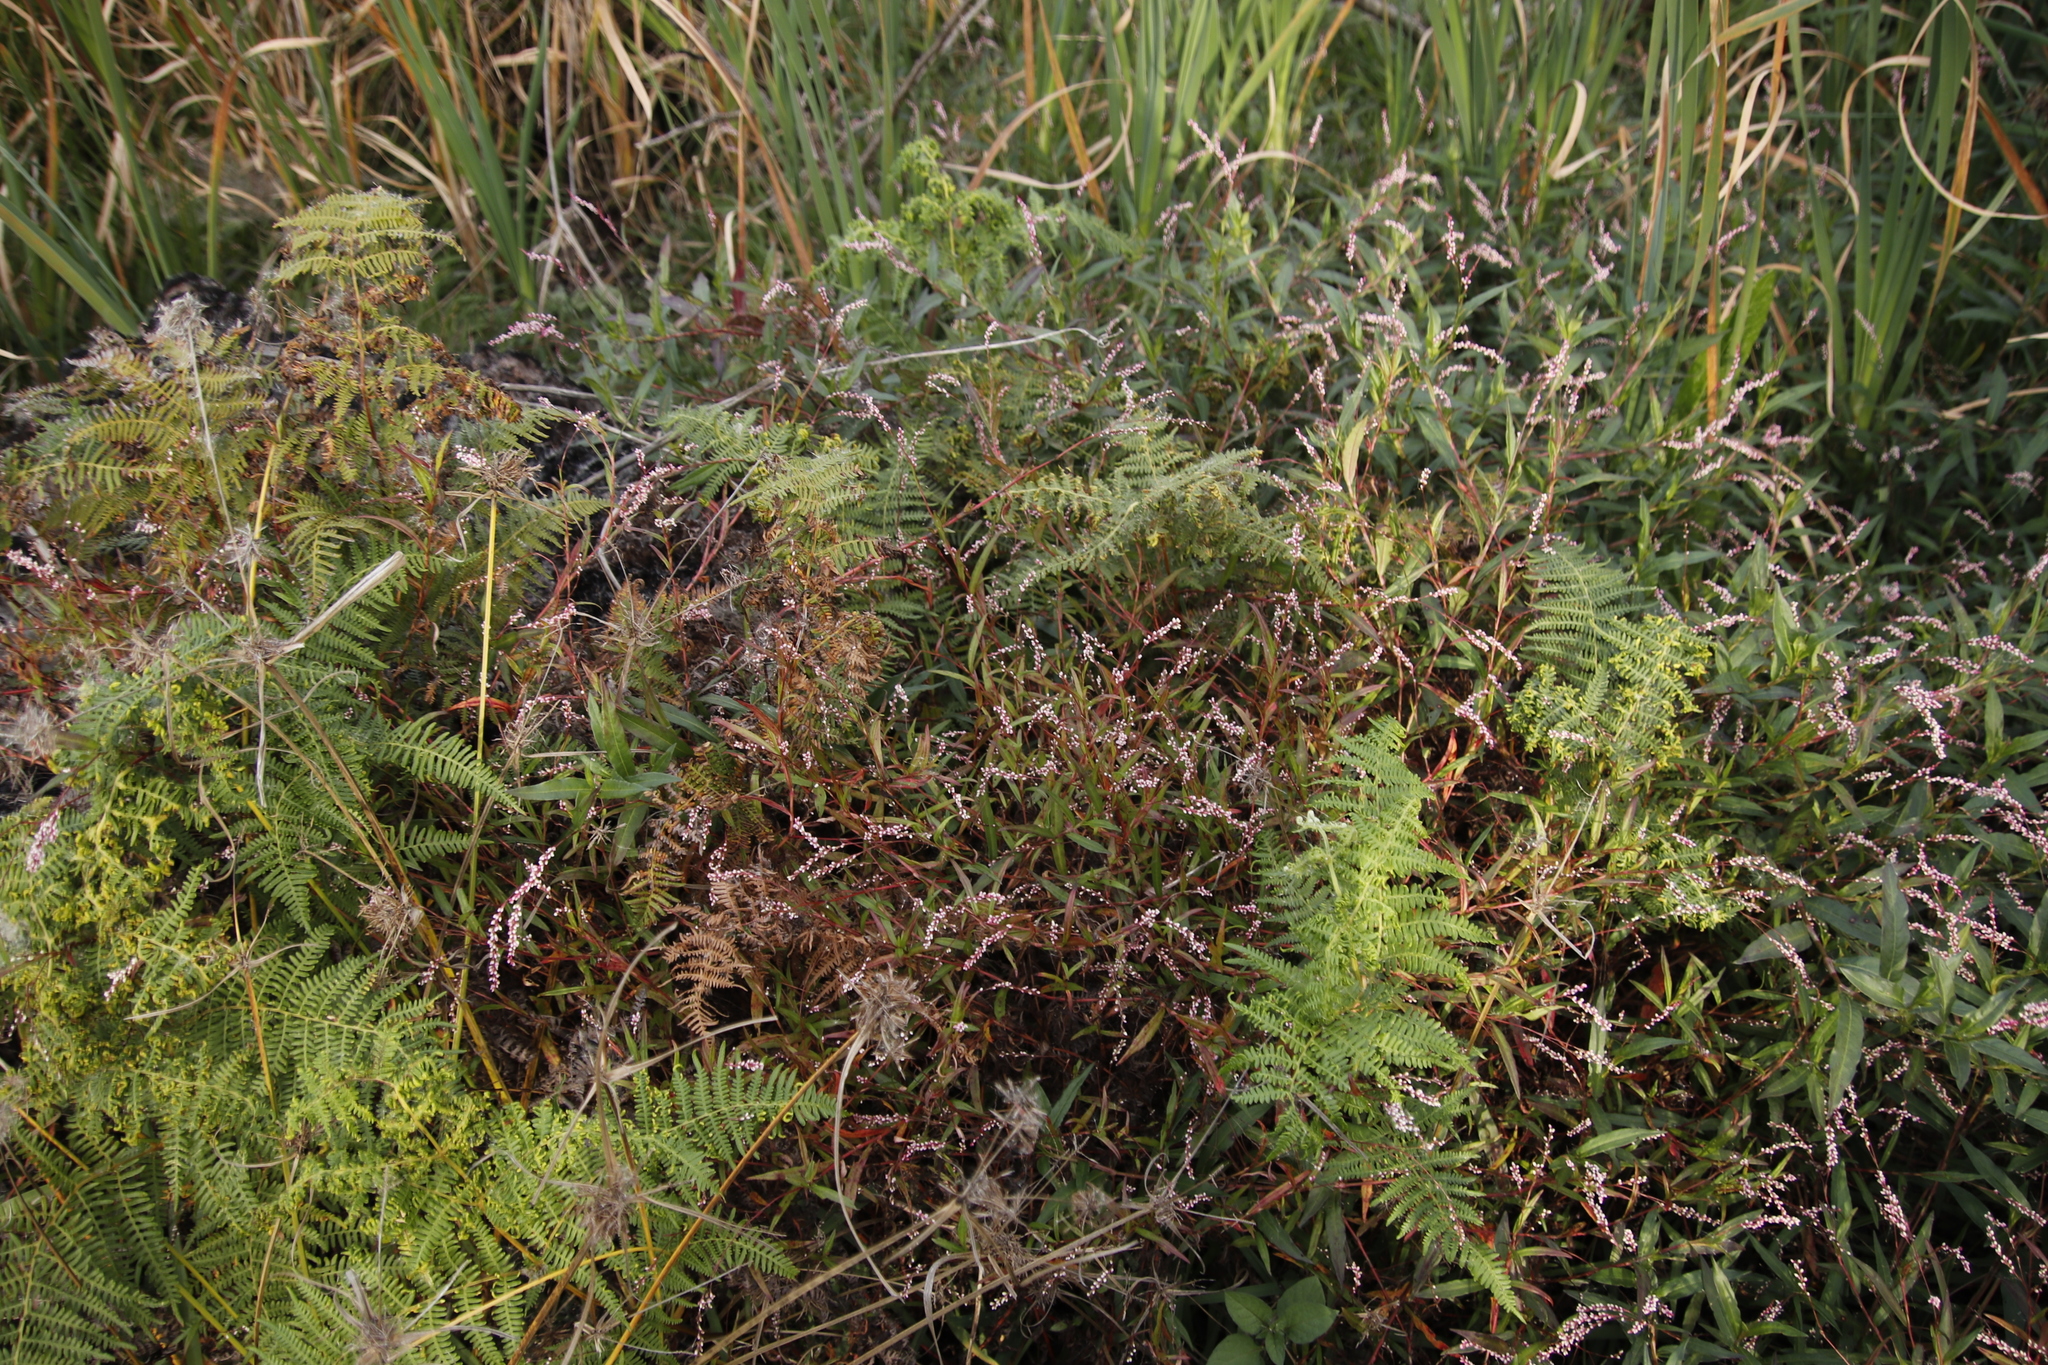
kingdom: Plantae
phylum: Tracheophyta
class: Magnoliopsida
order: Caryophyllales
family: Polygonaceae
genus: Persicaria
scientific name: Persicaria decipiens
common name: Willow-weed
